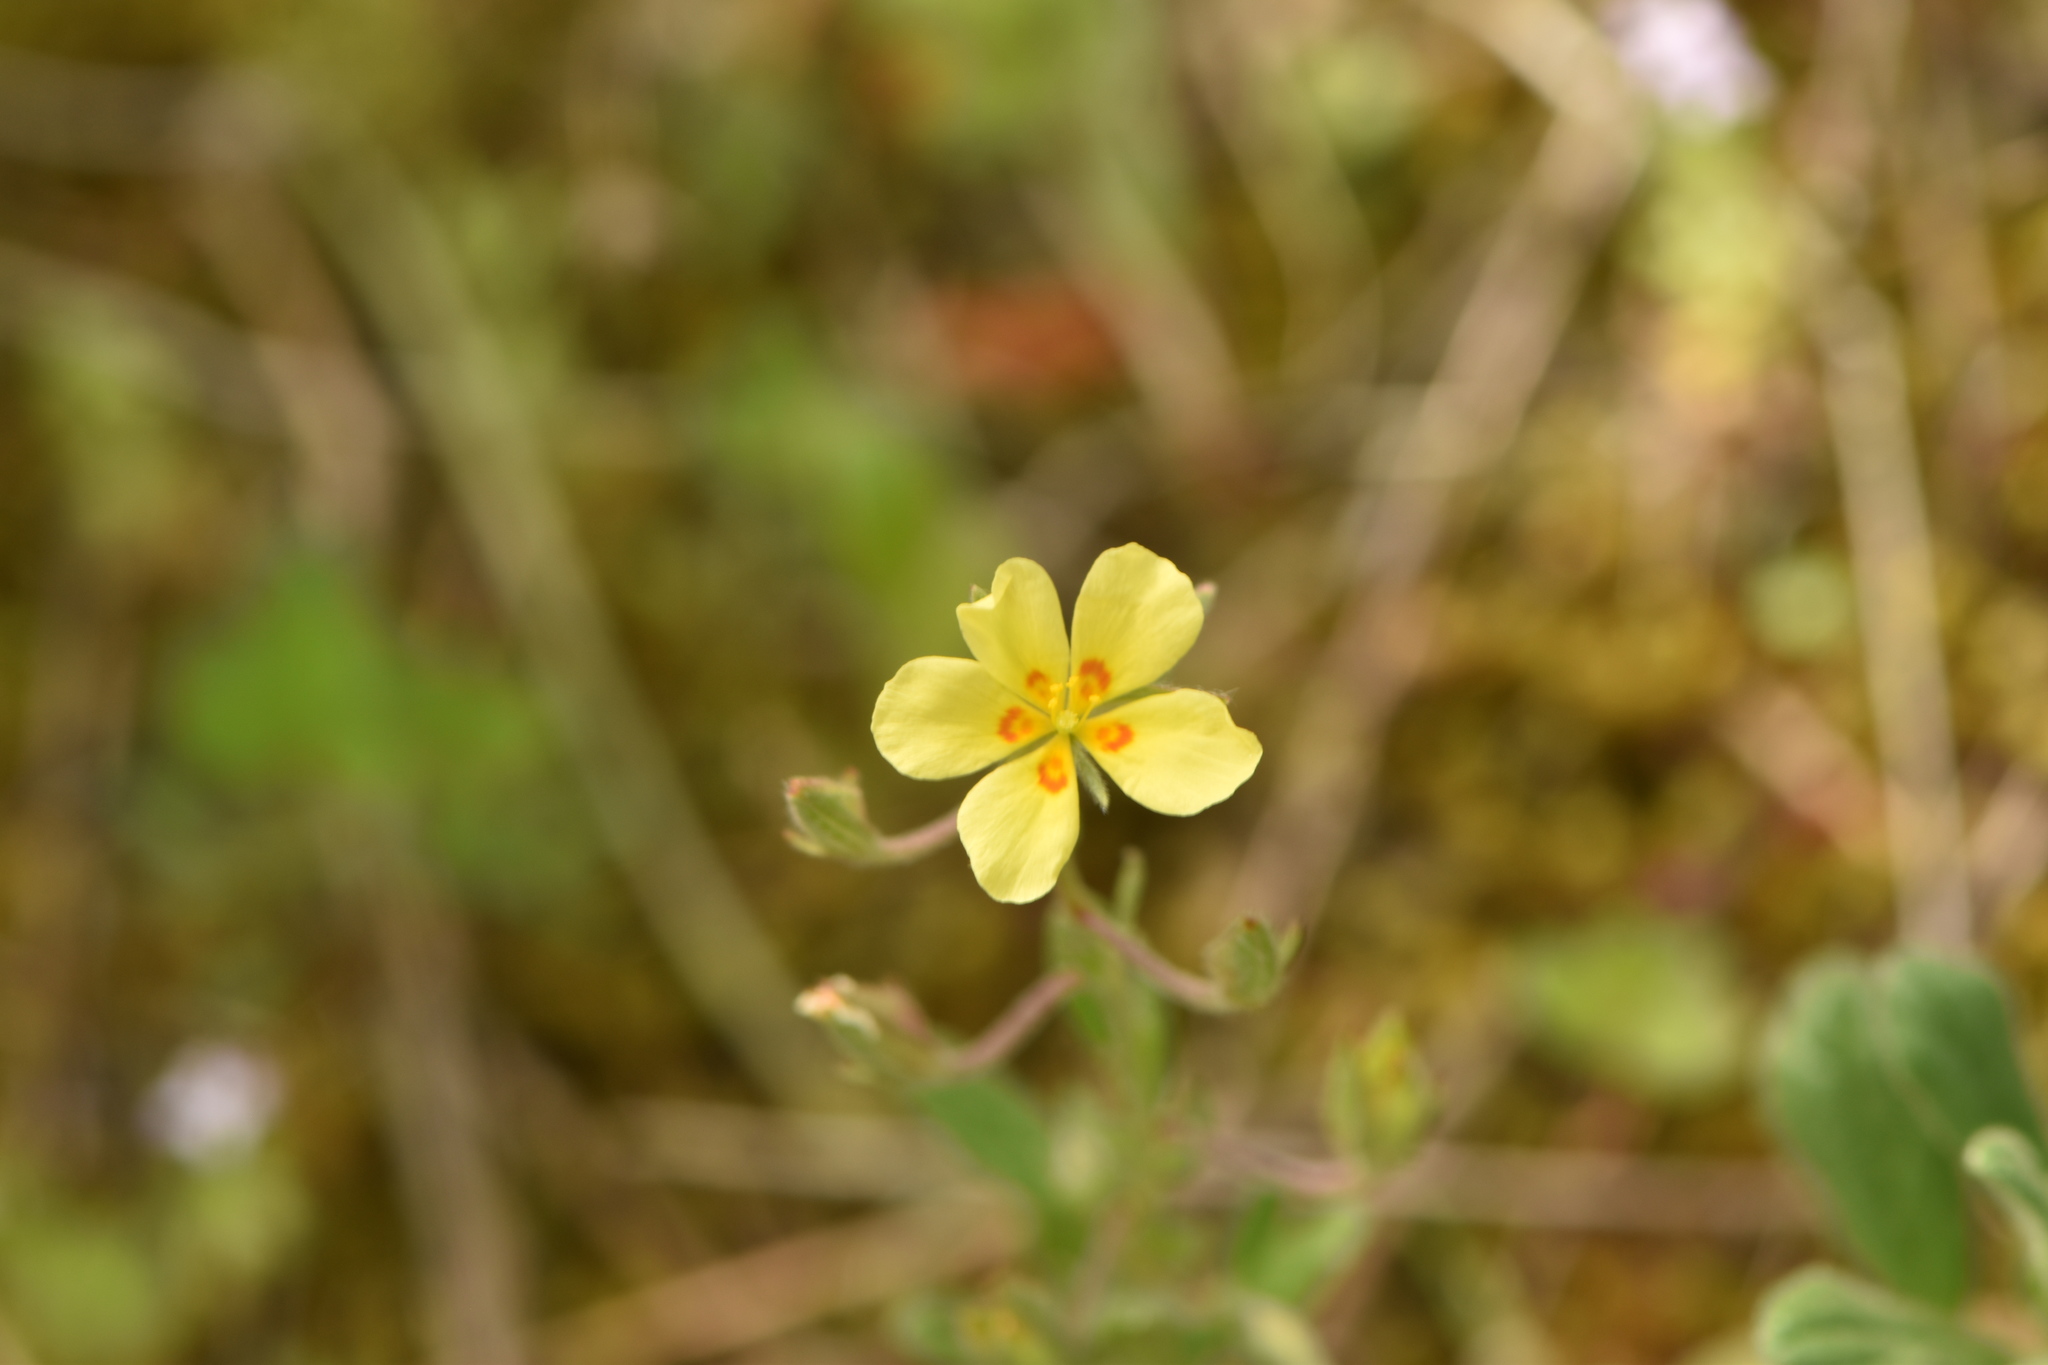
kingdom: Plantae
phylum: Tracheophyta
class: Magnoliopsida
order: Malvales
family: Cistaceae
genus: Helianthemum
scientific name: Helianthemum salicifolium
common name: Willowleaf frostweed
